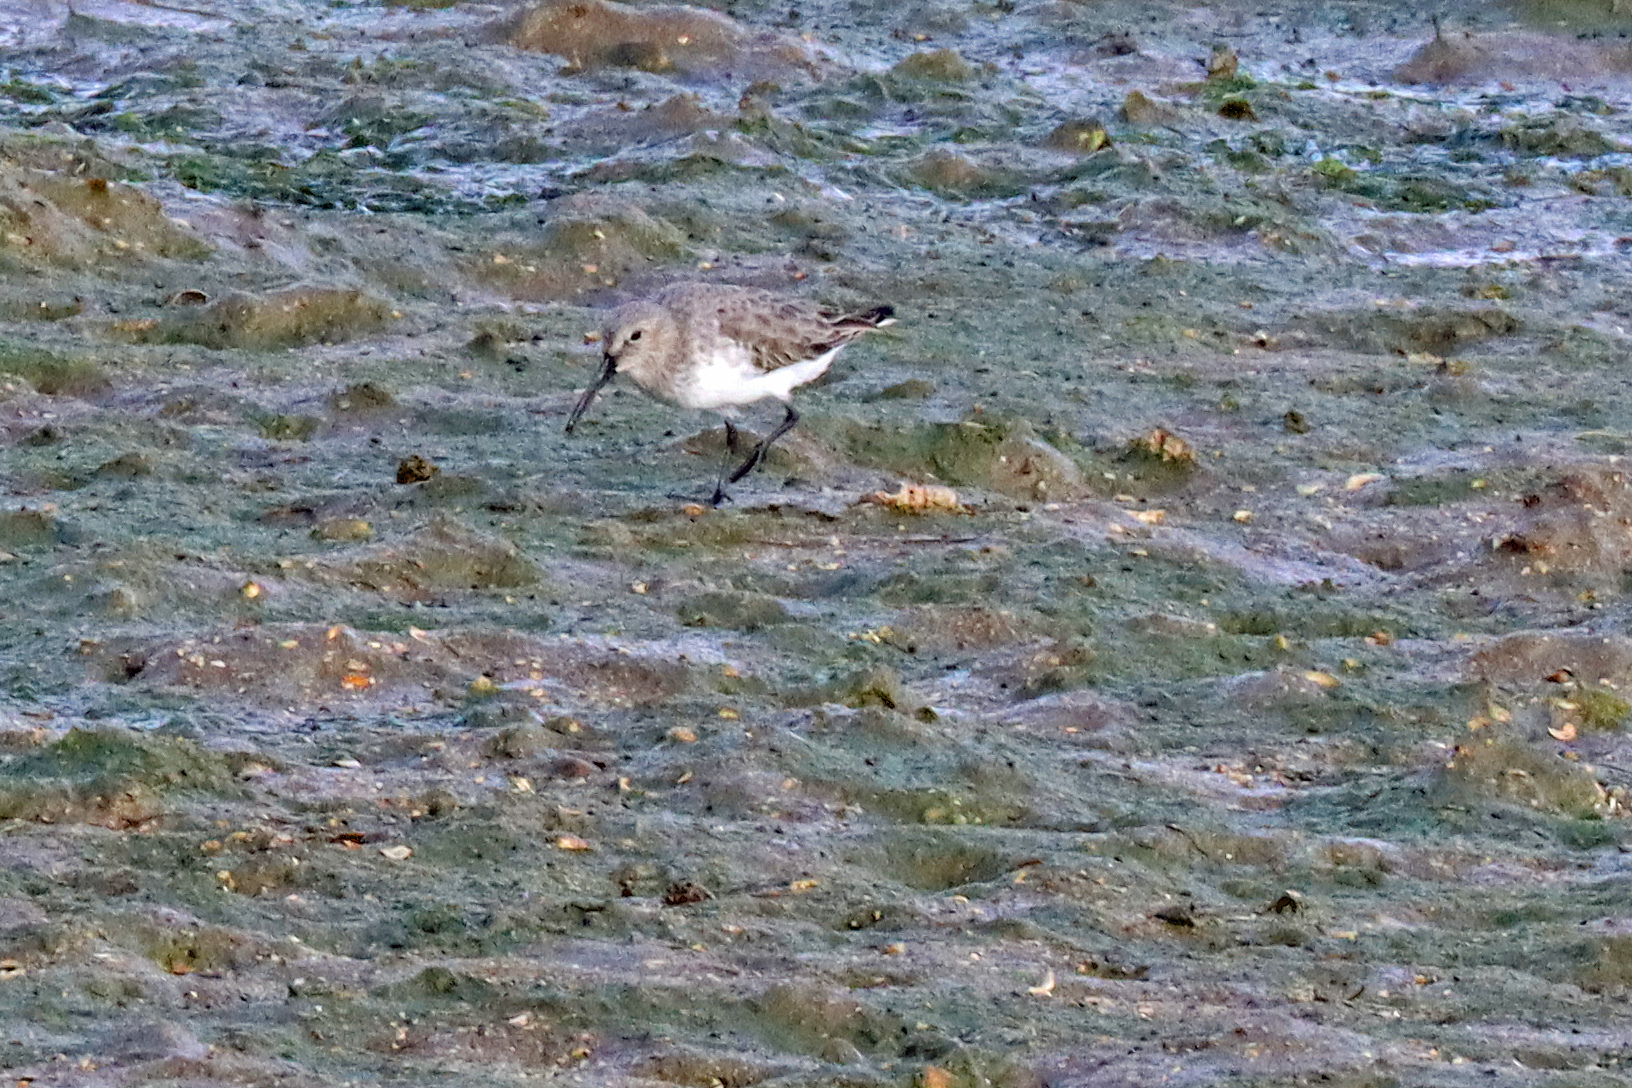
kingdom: Animalia
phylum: Chordata
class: Aves
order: Charadriiformes
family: Scolopacidae
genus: Calidris
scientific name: Calidris alpina
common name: Dunlin
